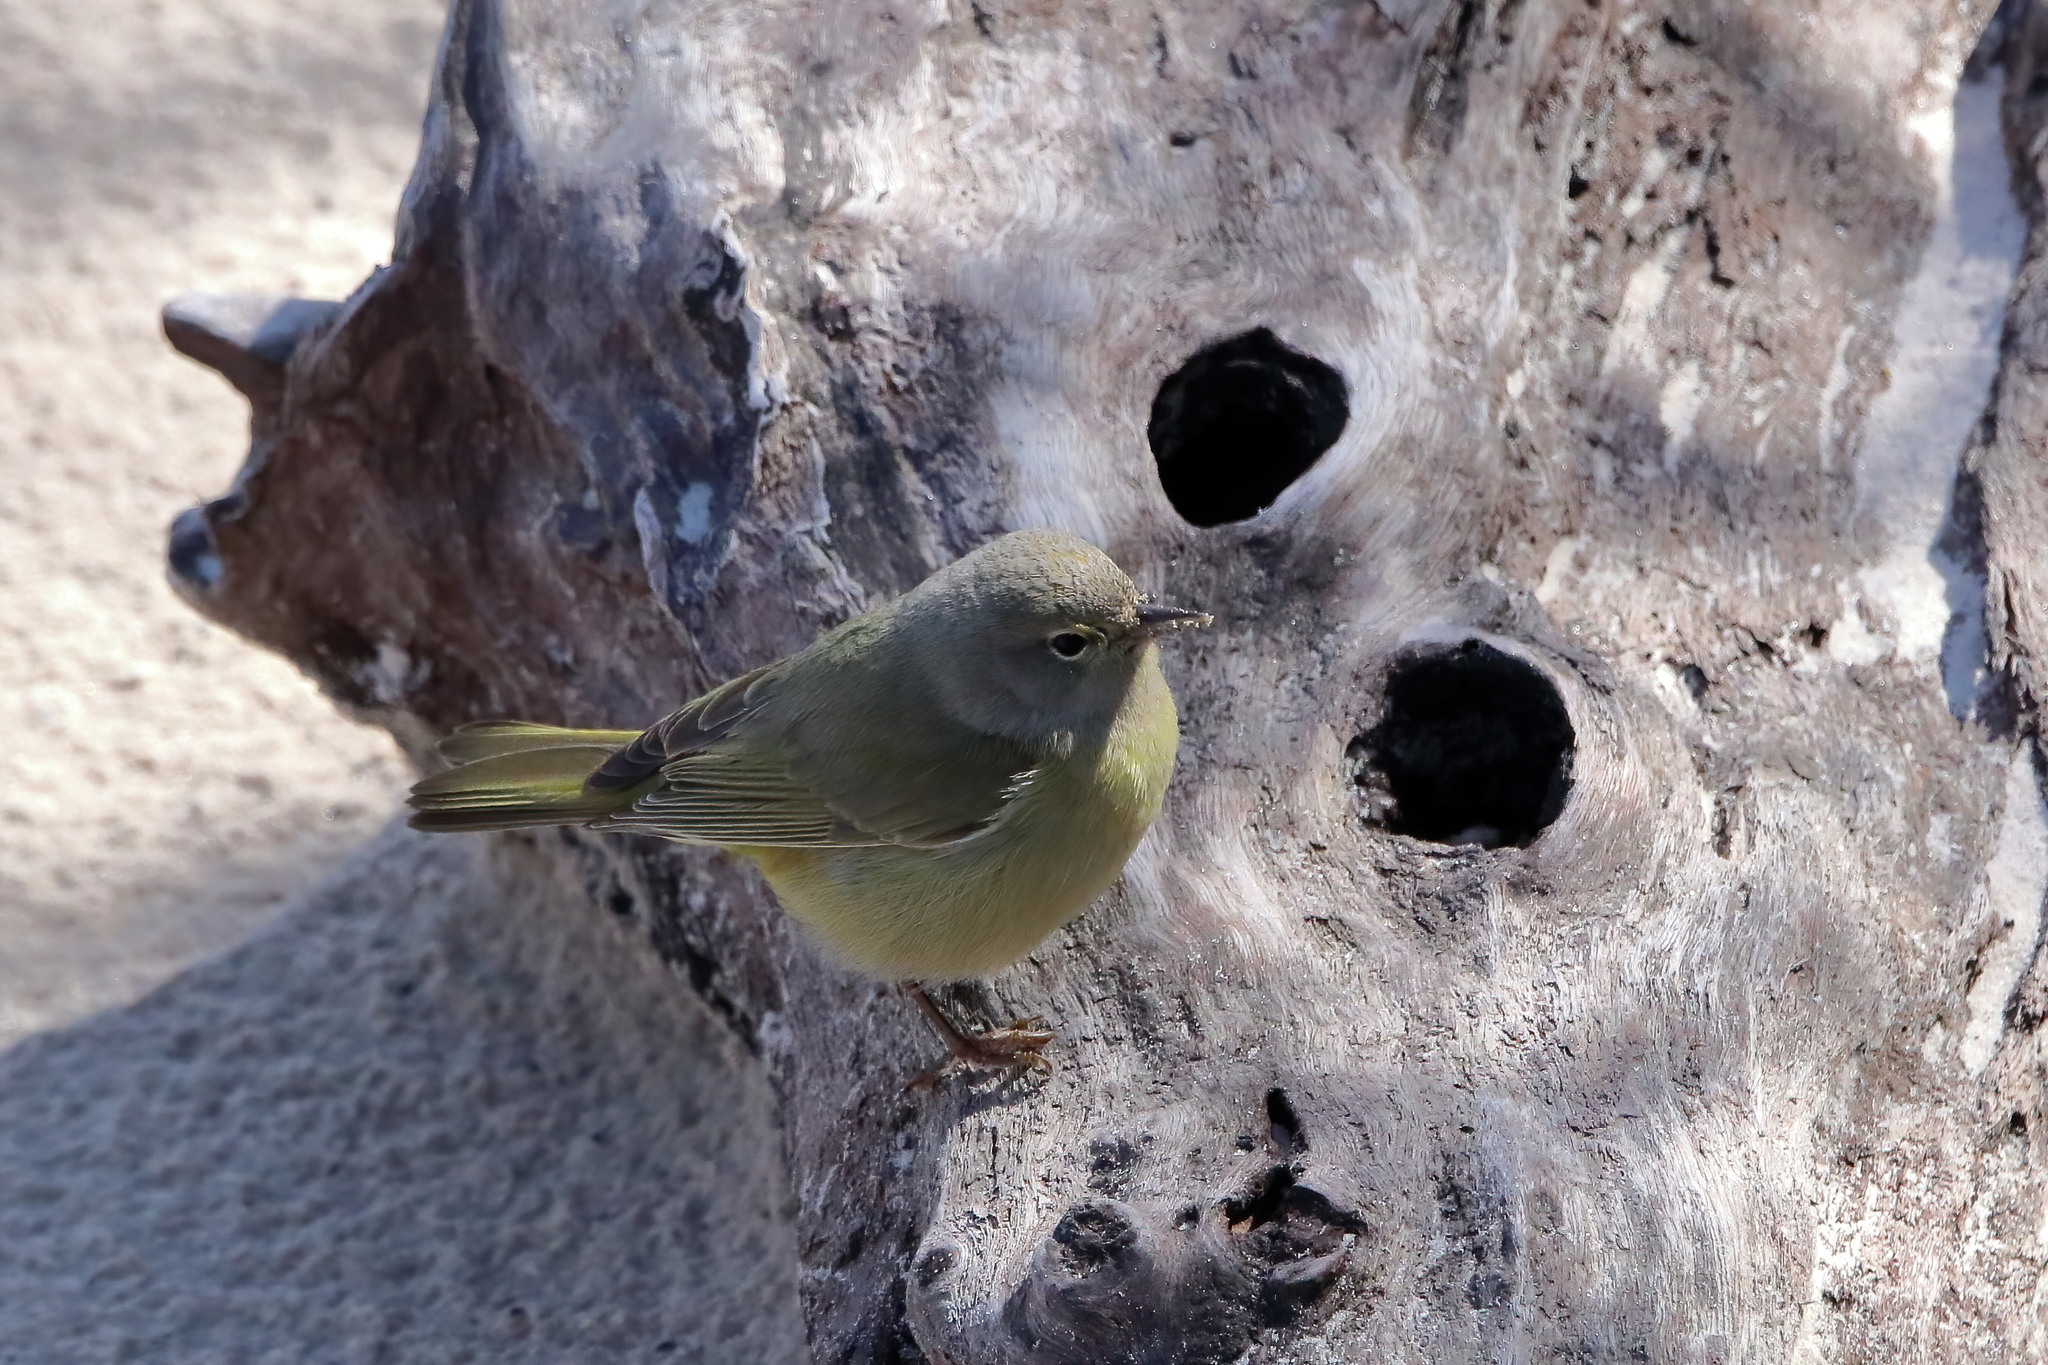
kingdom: Animalia
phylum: Chordata
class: Aves
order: Passeriformes
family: Parulidae
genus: Leiothlypis
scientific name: Leiothlypis celata
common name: Orange-crowned warbler
